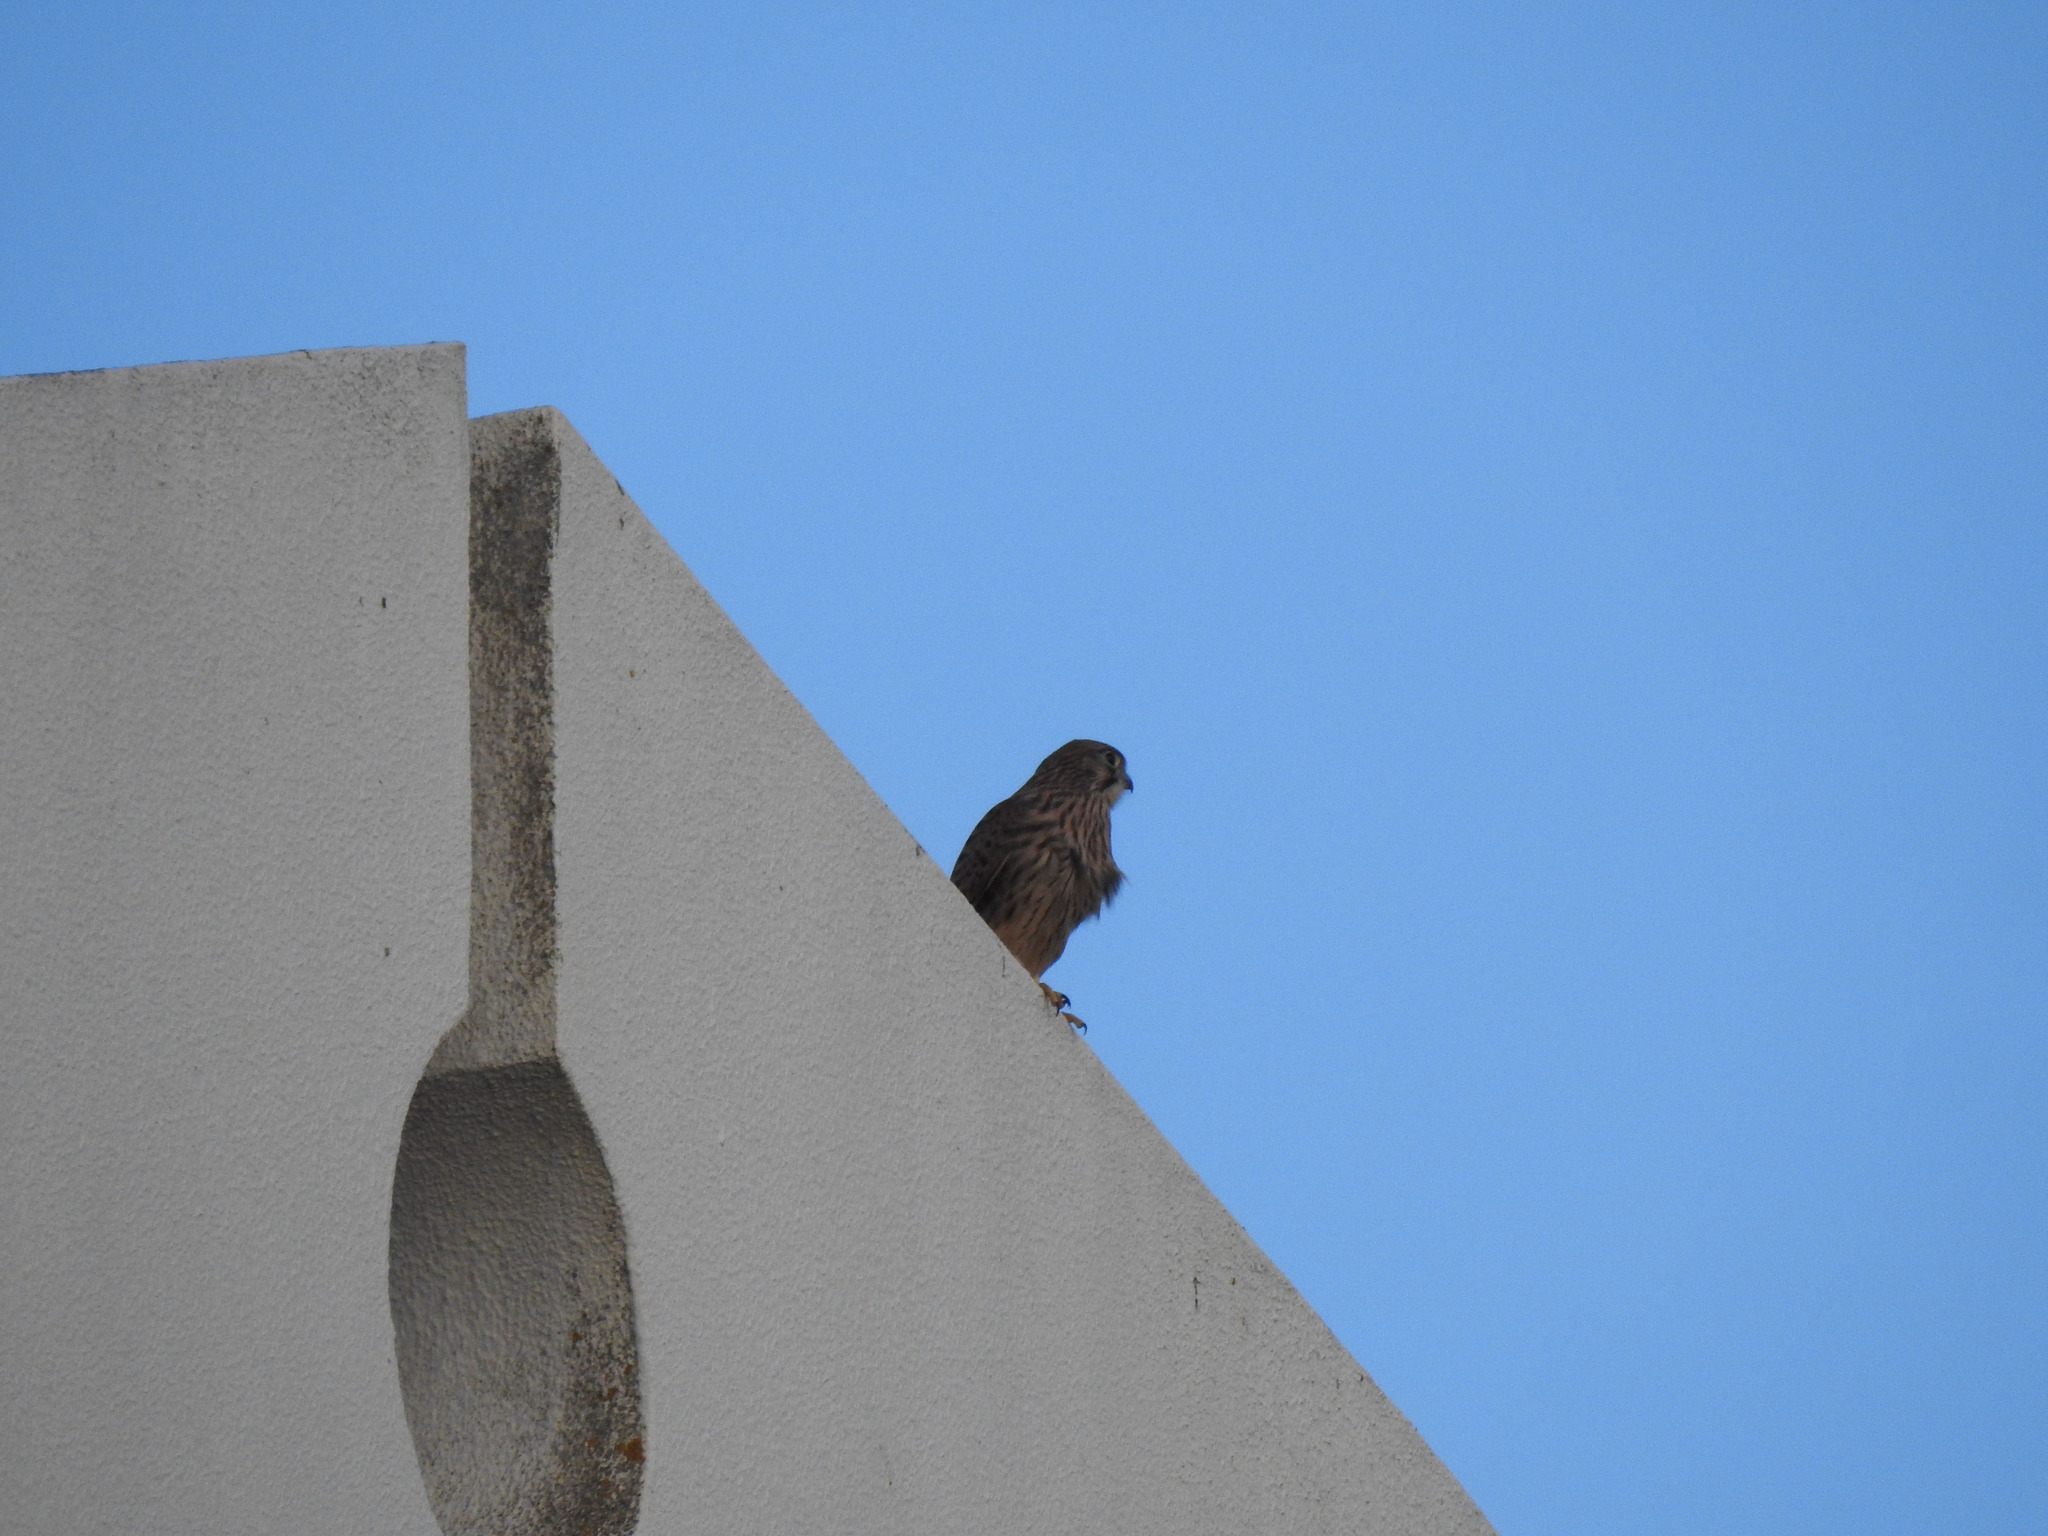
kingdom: Animalia
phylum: Chordata
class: Aves
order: Falconiformes
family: Falconidae
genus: Falco
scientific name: Falco tinnunculus
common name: Common kestrel
